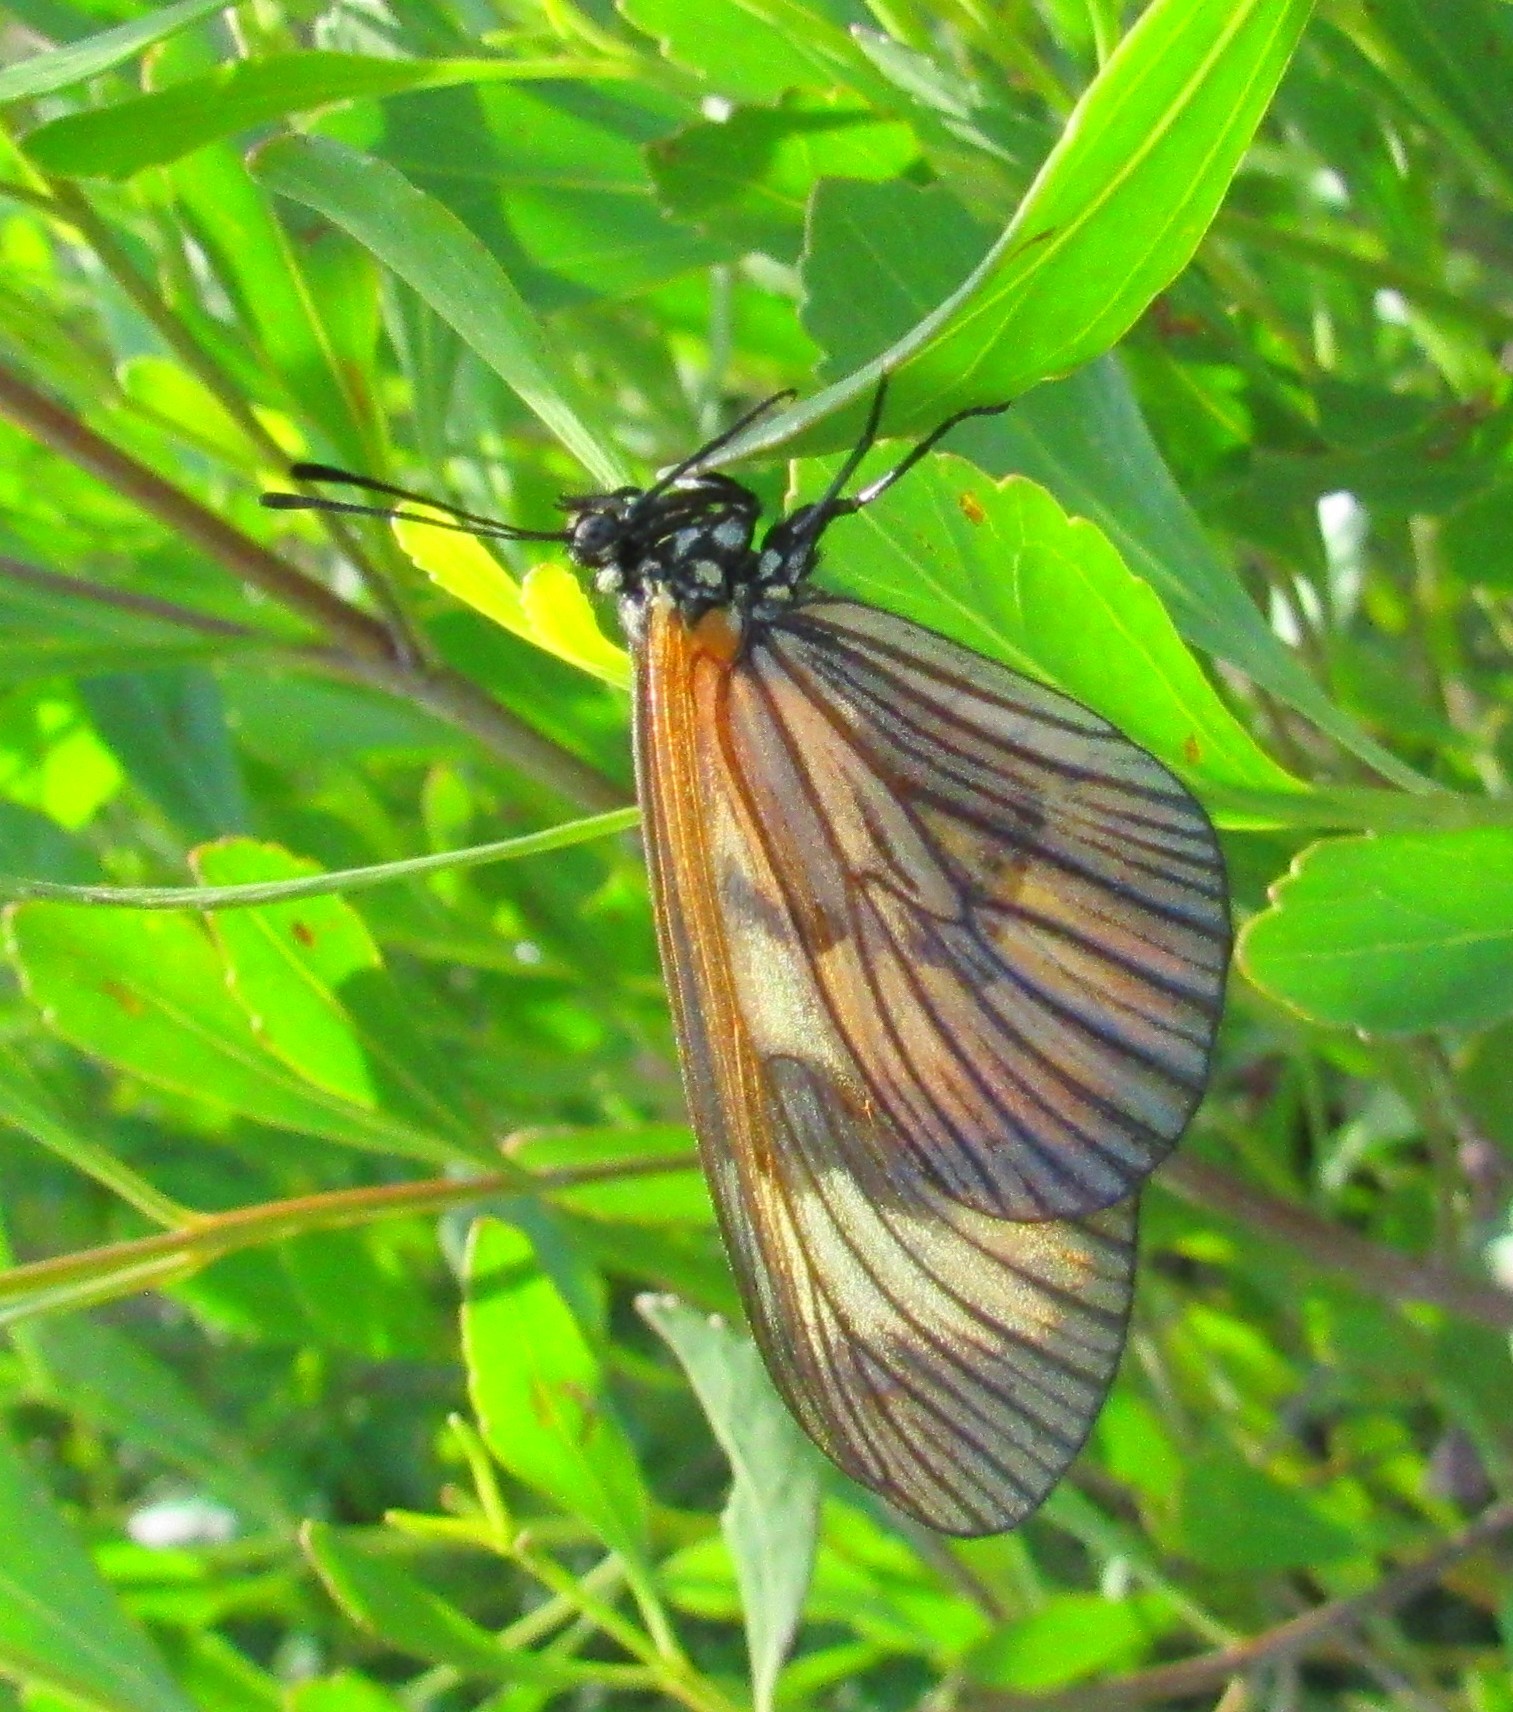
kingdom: Animalia
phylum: Arthropoda
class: Insecta
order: Lepidoptera
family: Nymphalidae
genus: Actinote
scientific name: Actinote surima
